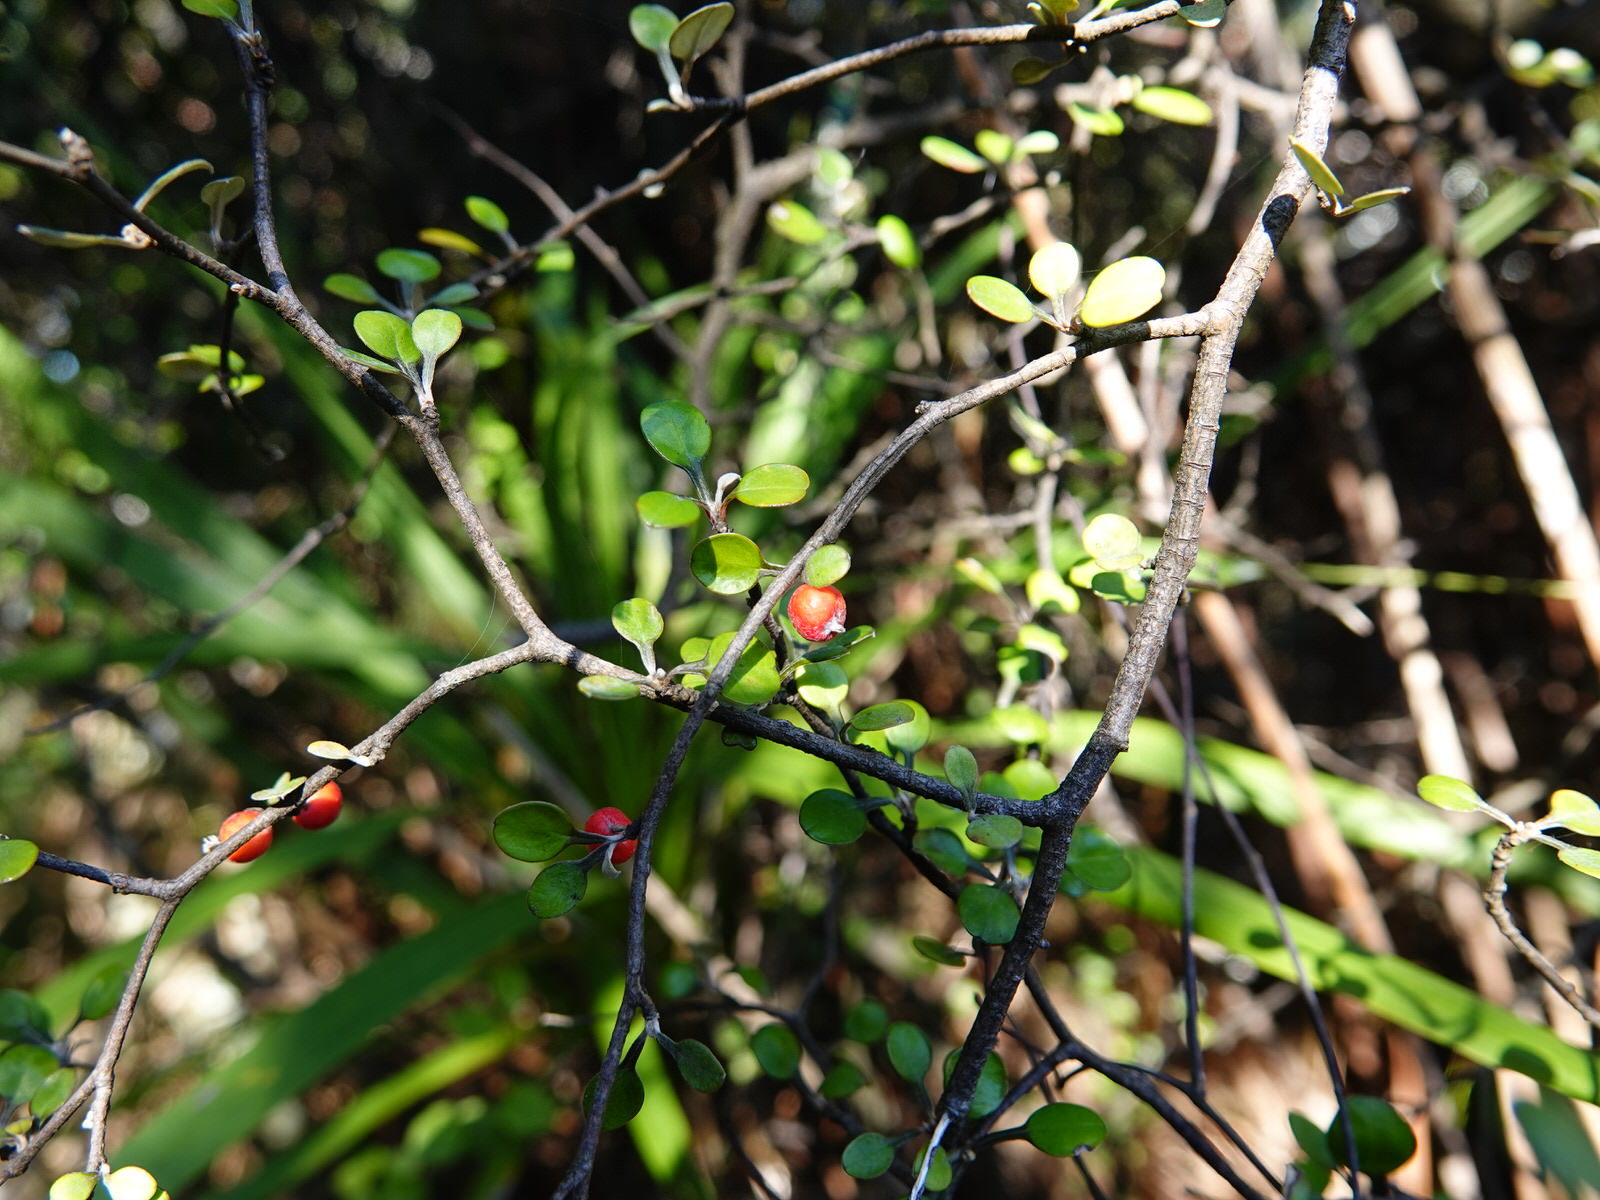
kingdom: Plantae
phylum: Tracheophyta
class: Magnoliopsida
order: Asterales
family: Argophyllaceae
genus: Corokia
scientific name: Corokia cotoneaster
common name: Wire nettingbush
